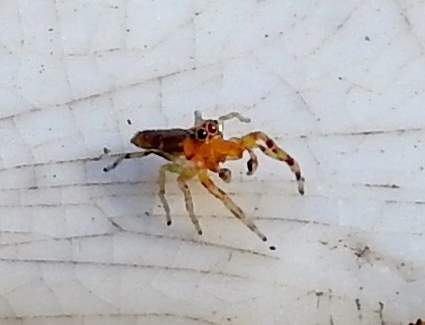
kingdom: Animalia
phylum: Arthropoda
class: Arachnida
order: Araneae
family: Salticidae
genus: Gypogyna
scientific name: Gypogyna mexicana
